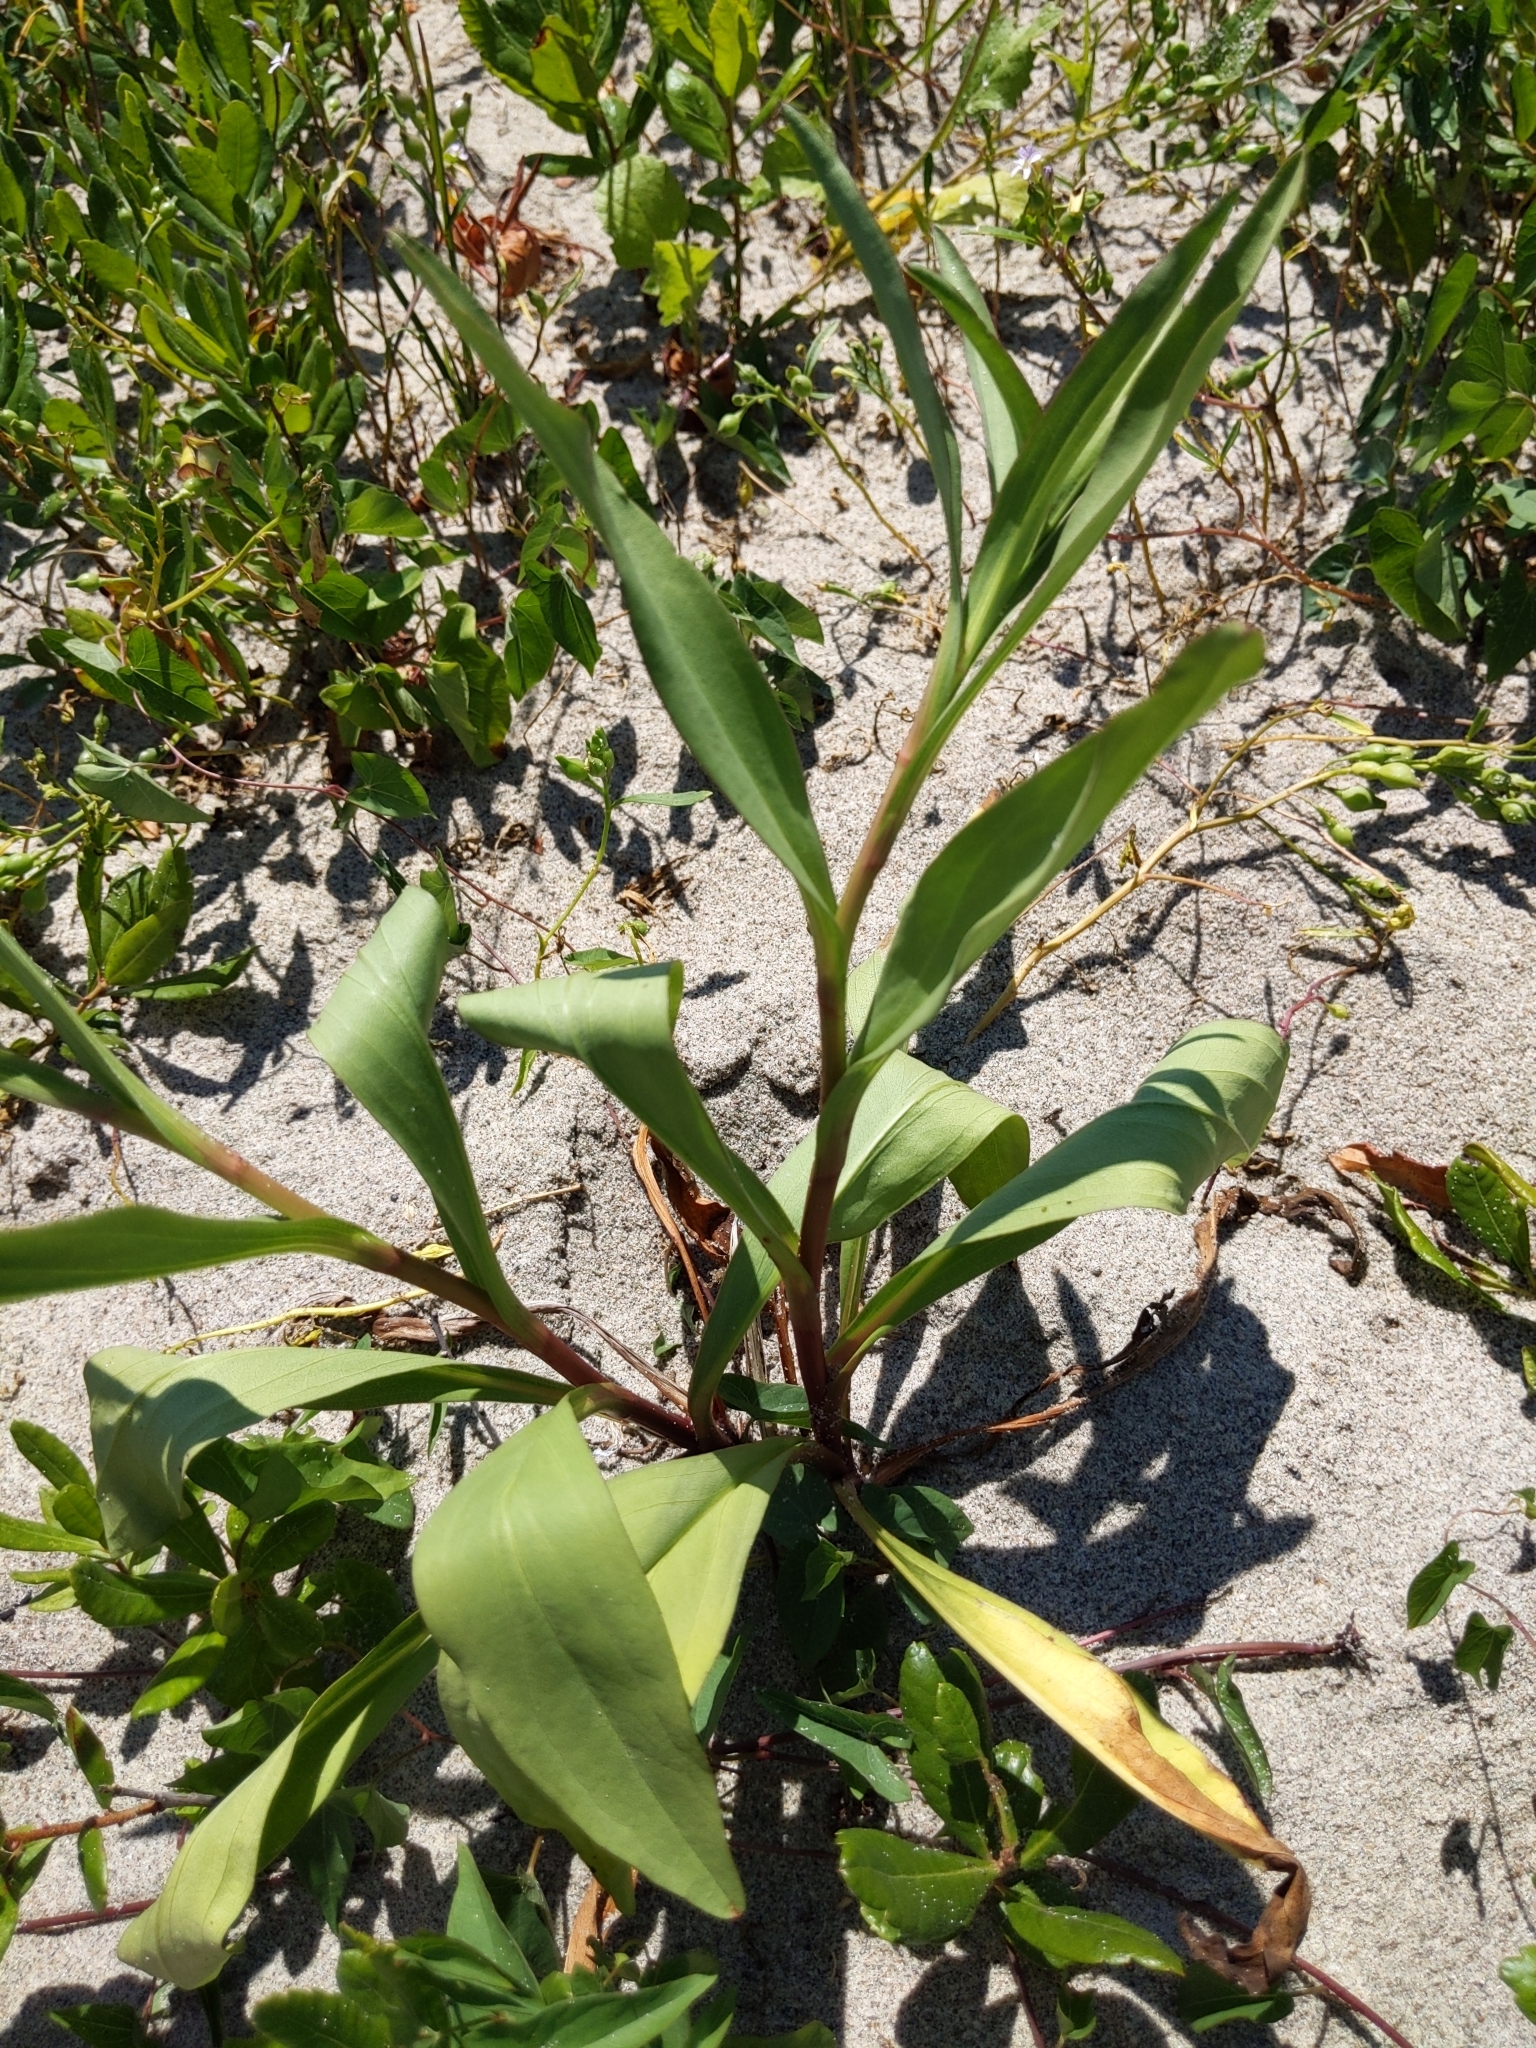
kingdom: Plantae
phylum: Tracheophyta
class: Magnoliopsida
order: Asterales
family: Asteraceae
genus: Solidago
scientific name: Solidago sempervirens
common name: Salt-marsh goldenrod
